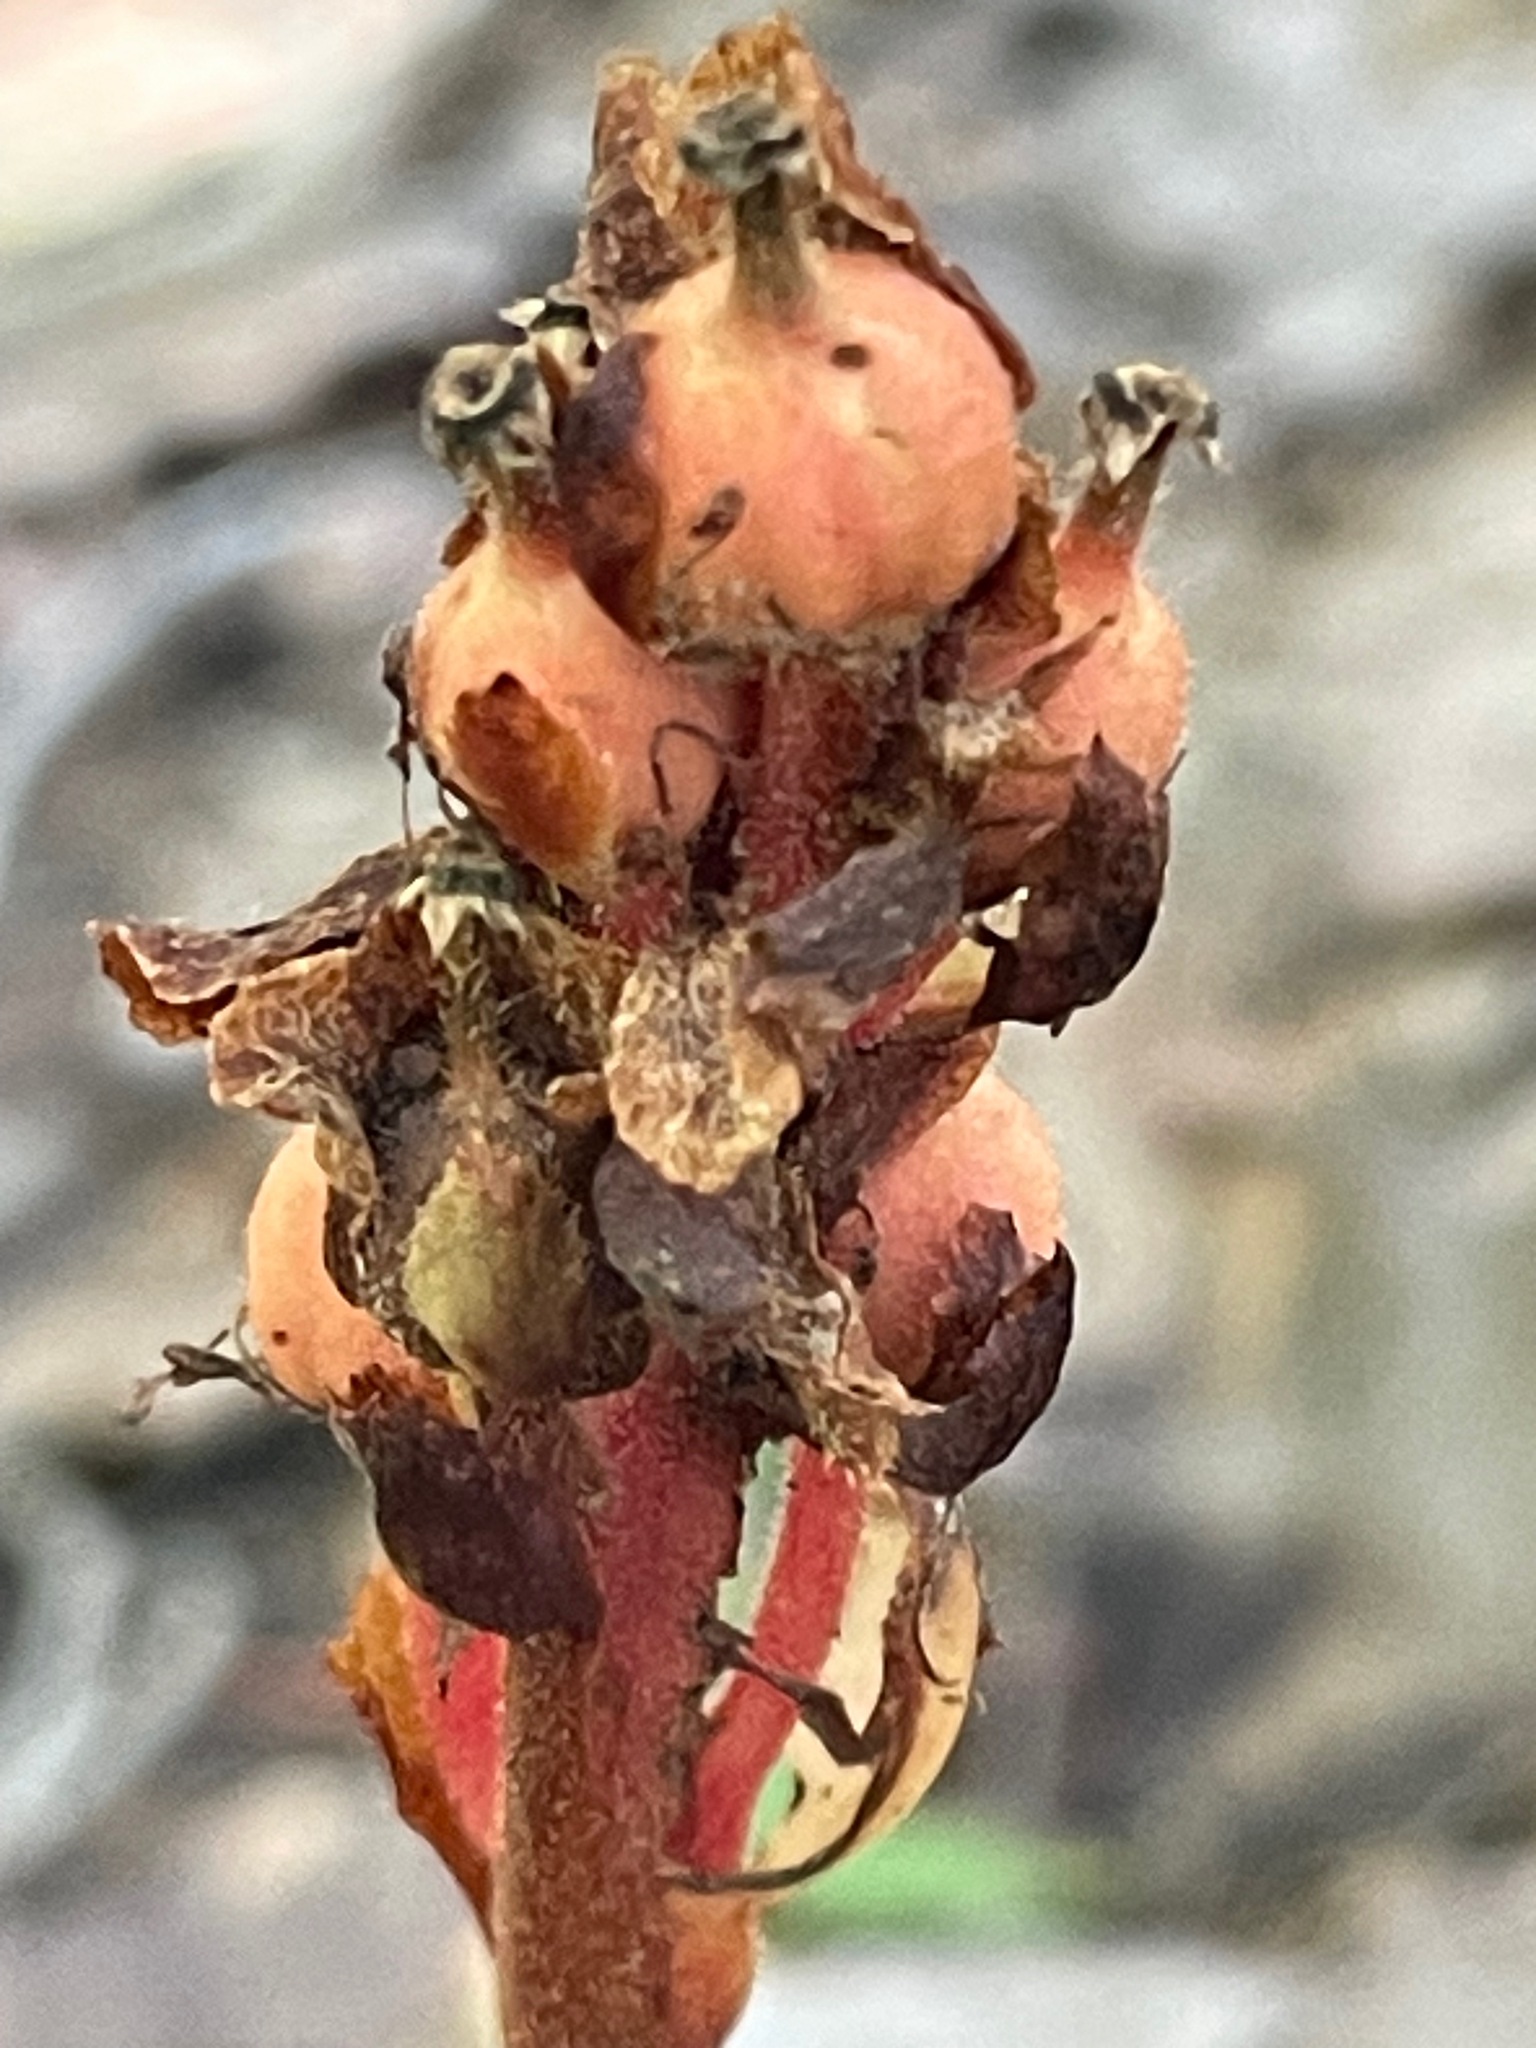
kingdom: Plantae
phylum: Tracheophyta
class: Magnoliopsida
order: Ericales
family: Ericaceae
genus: Hypopitys
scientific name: Hypopitys monotropa
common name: Yellow bird's-nest
